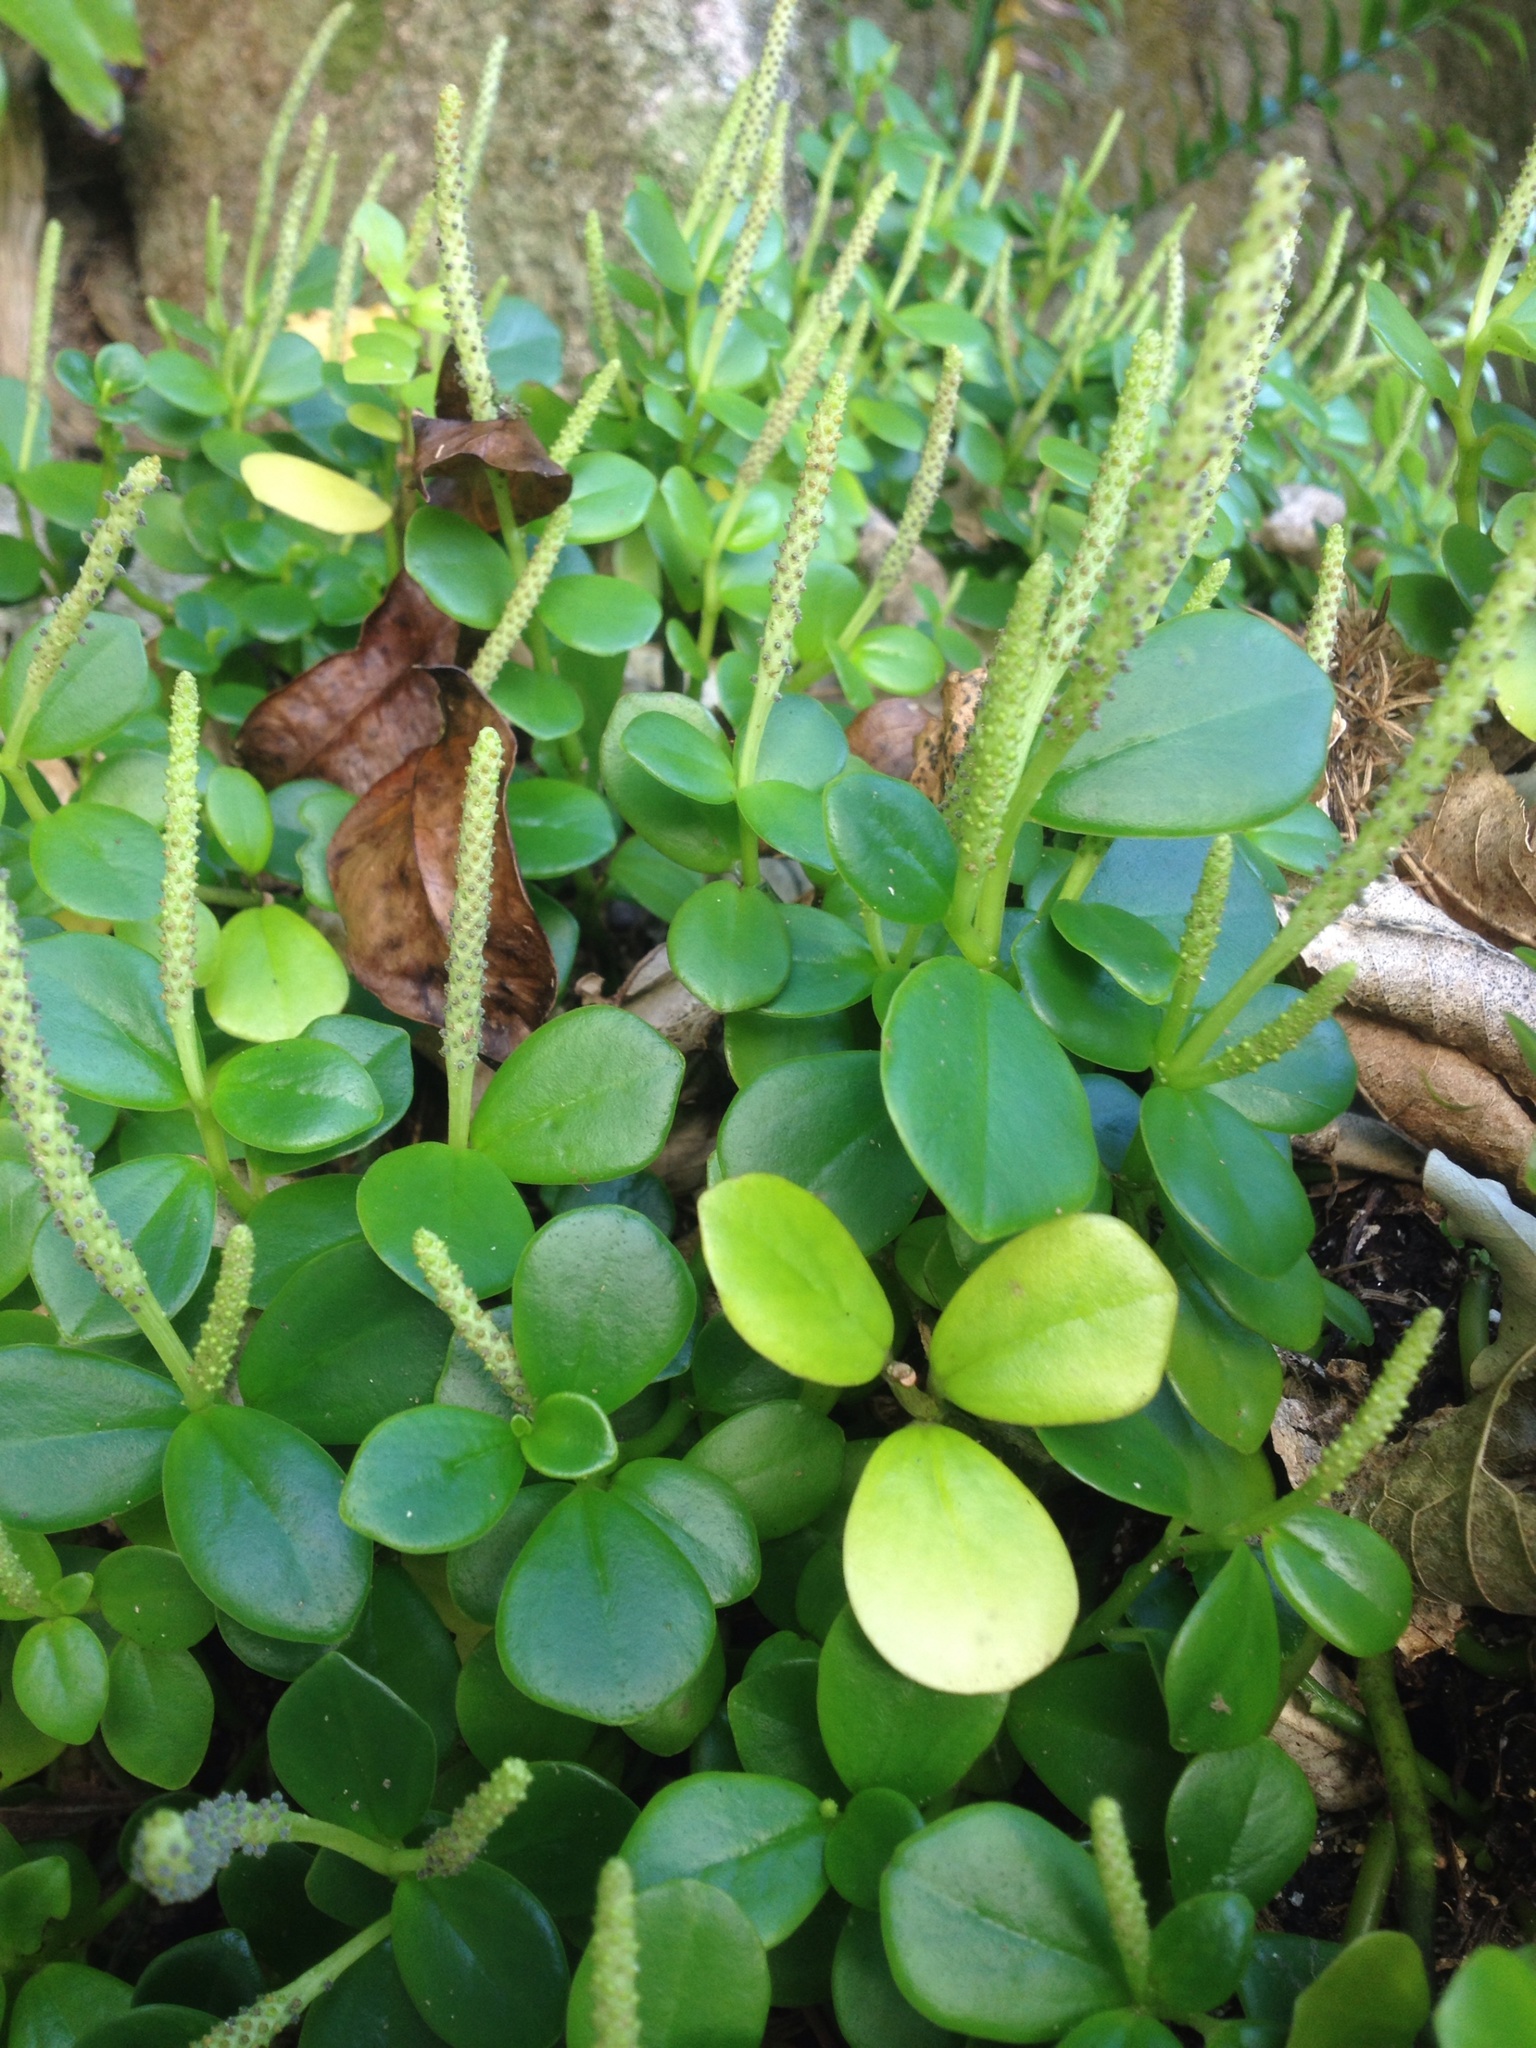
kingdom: Plantae
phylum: Tracheophyta
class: Magnoliopsida
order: Piperales
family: Piperaceae
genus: Peperomia
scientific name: Peperomia urvilleana
